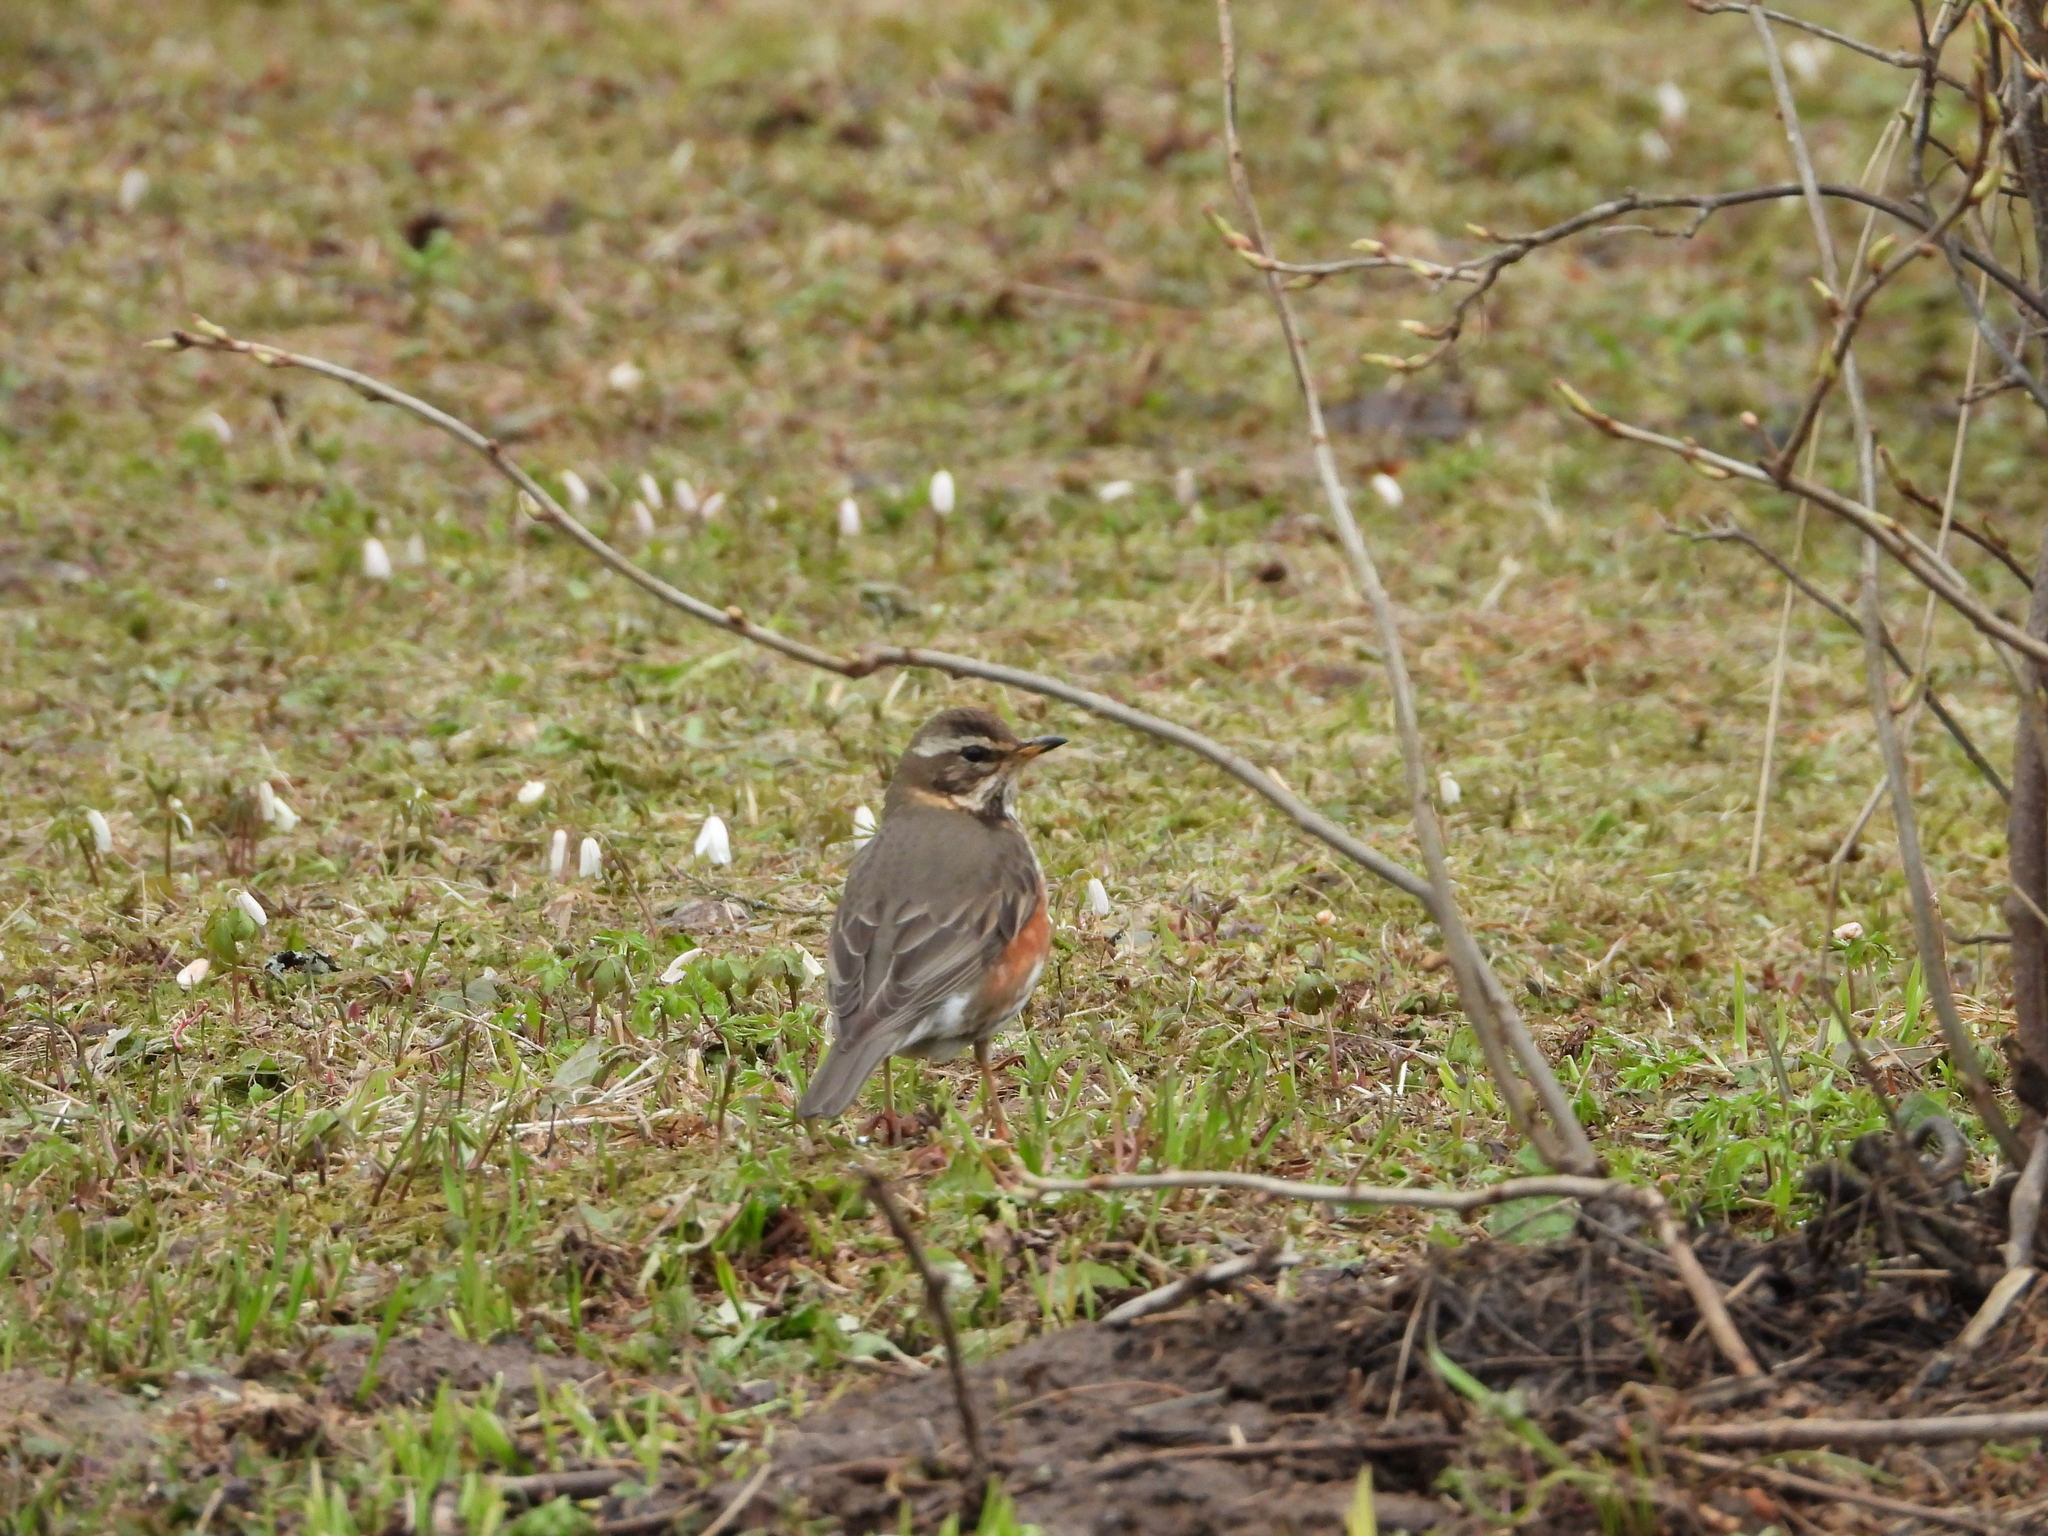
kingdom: Animalia
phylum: Chordata
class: Aves
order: Passeriformes
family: Turdidae
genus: Turdus
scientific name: Turdus iliacus
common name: Redwing
